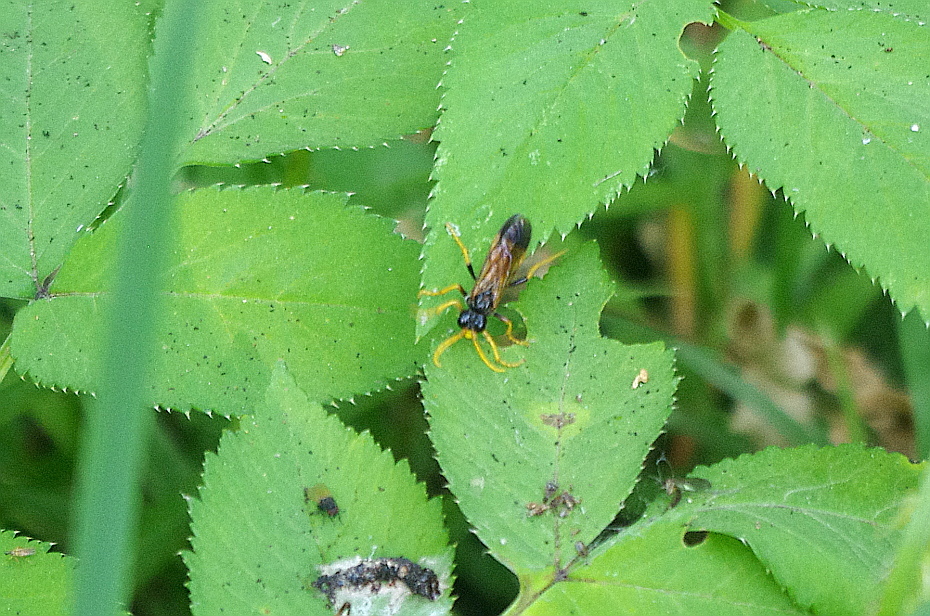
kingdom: Animalia
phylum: Arthropoda
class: Insecta
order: Hymenoptera
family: Tenthredinidae
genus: Tenthredo
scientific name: Tenthredo campestris
